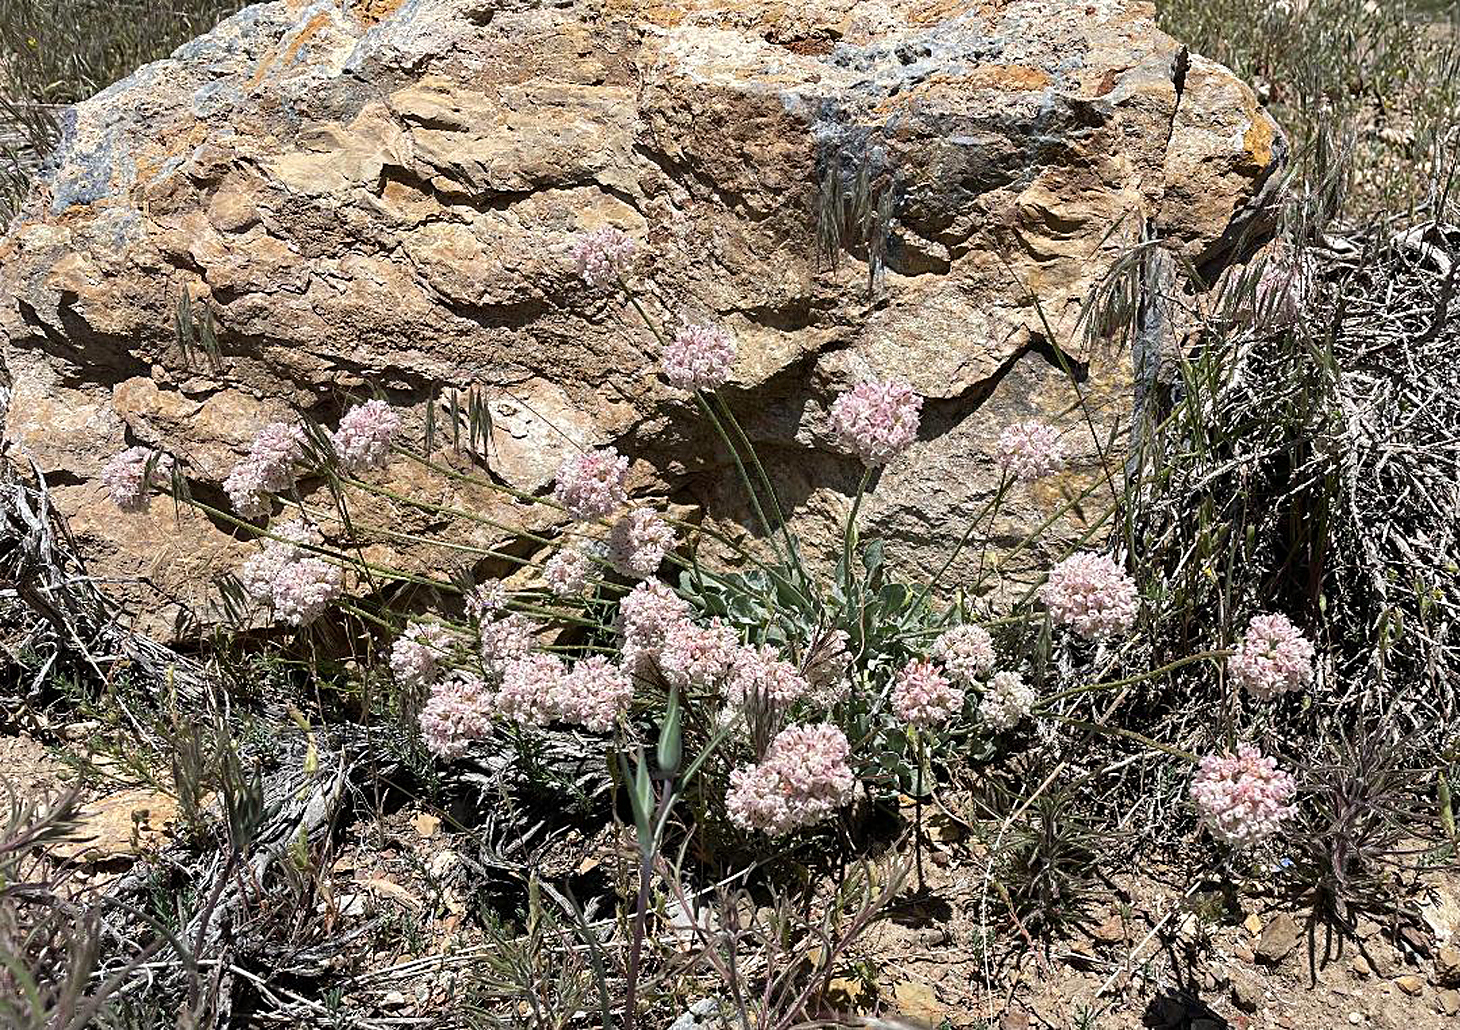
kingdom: Plantae
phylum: Tracheophyta
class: Magnoliopsida
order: Caryophyllales
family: Polygonaceae
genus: Eriogonum
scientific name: Eriogonum ovalifolium
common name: Cushion buckwheat
